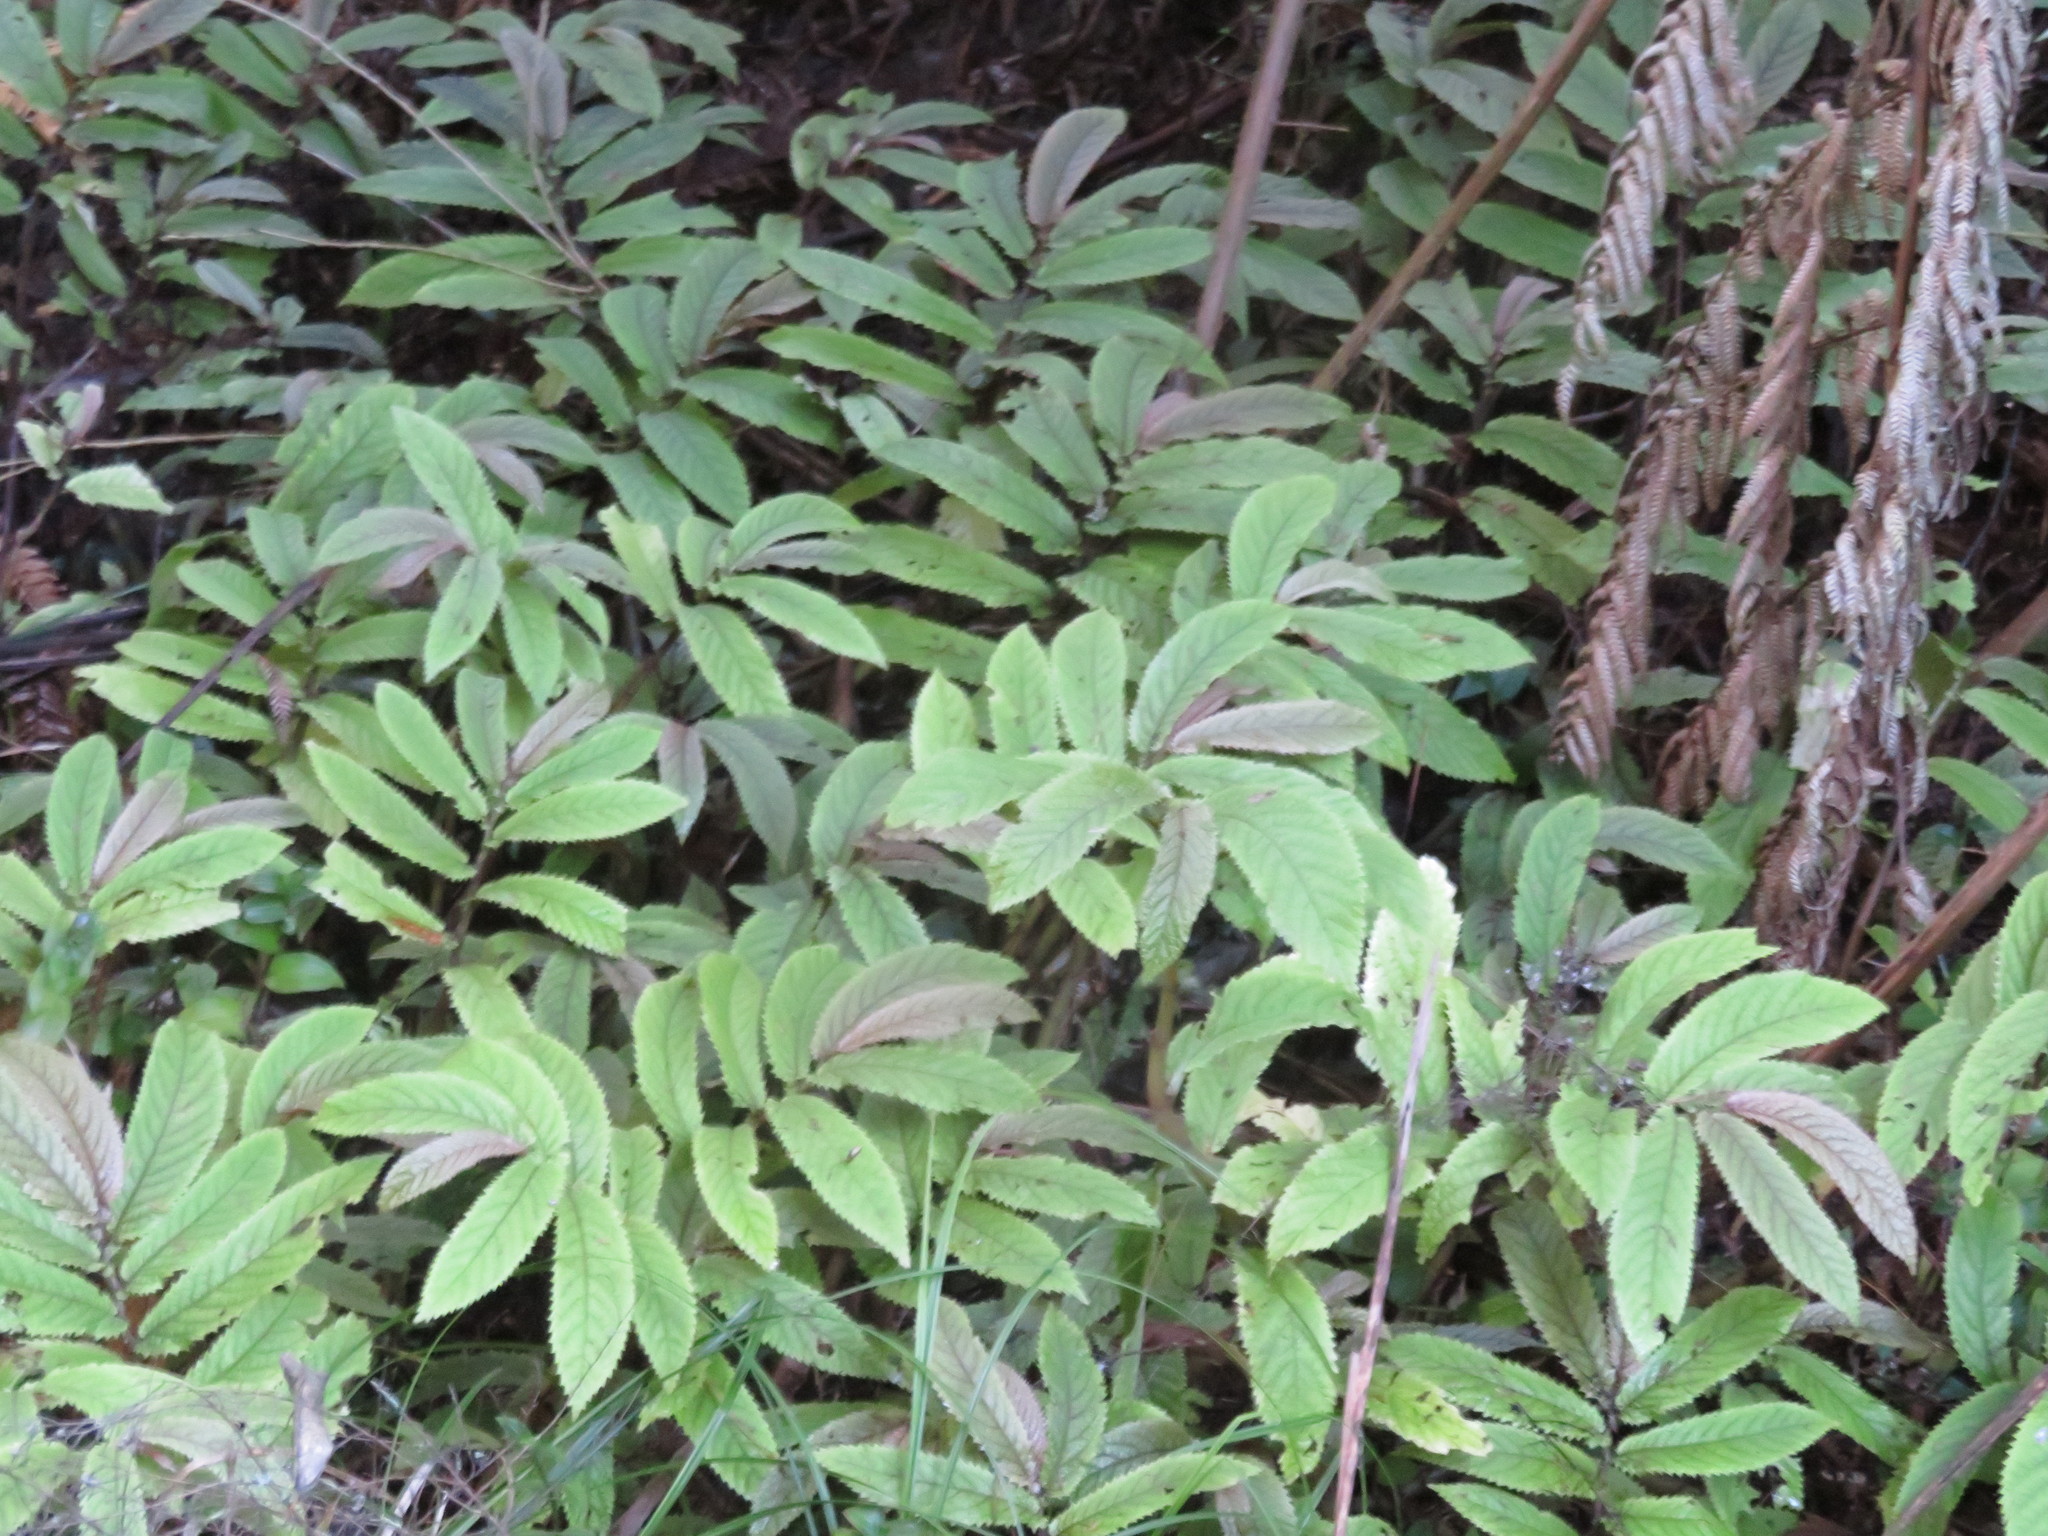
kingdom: Plantae
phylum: Tracheophyta
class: Magnoliopsida
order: Rosales
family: Urticaceae
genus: Elatostema
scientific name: Elatostema rugosum
